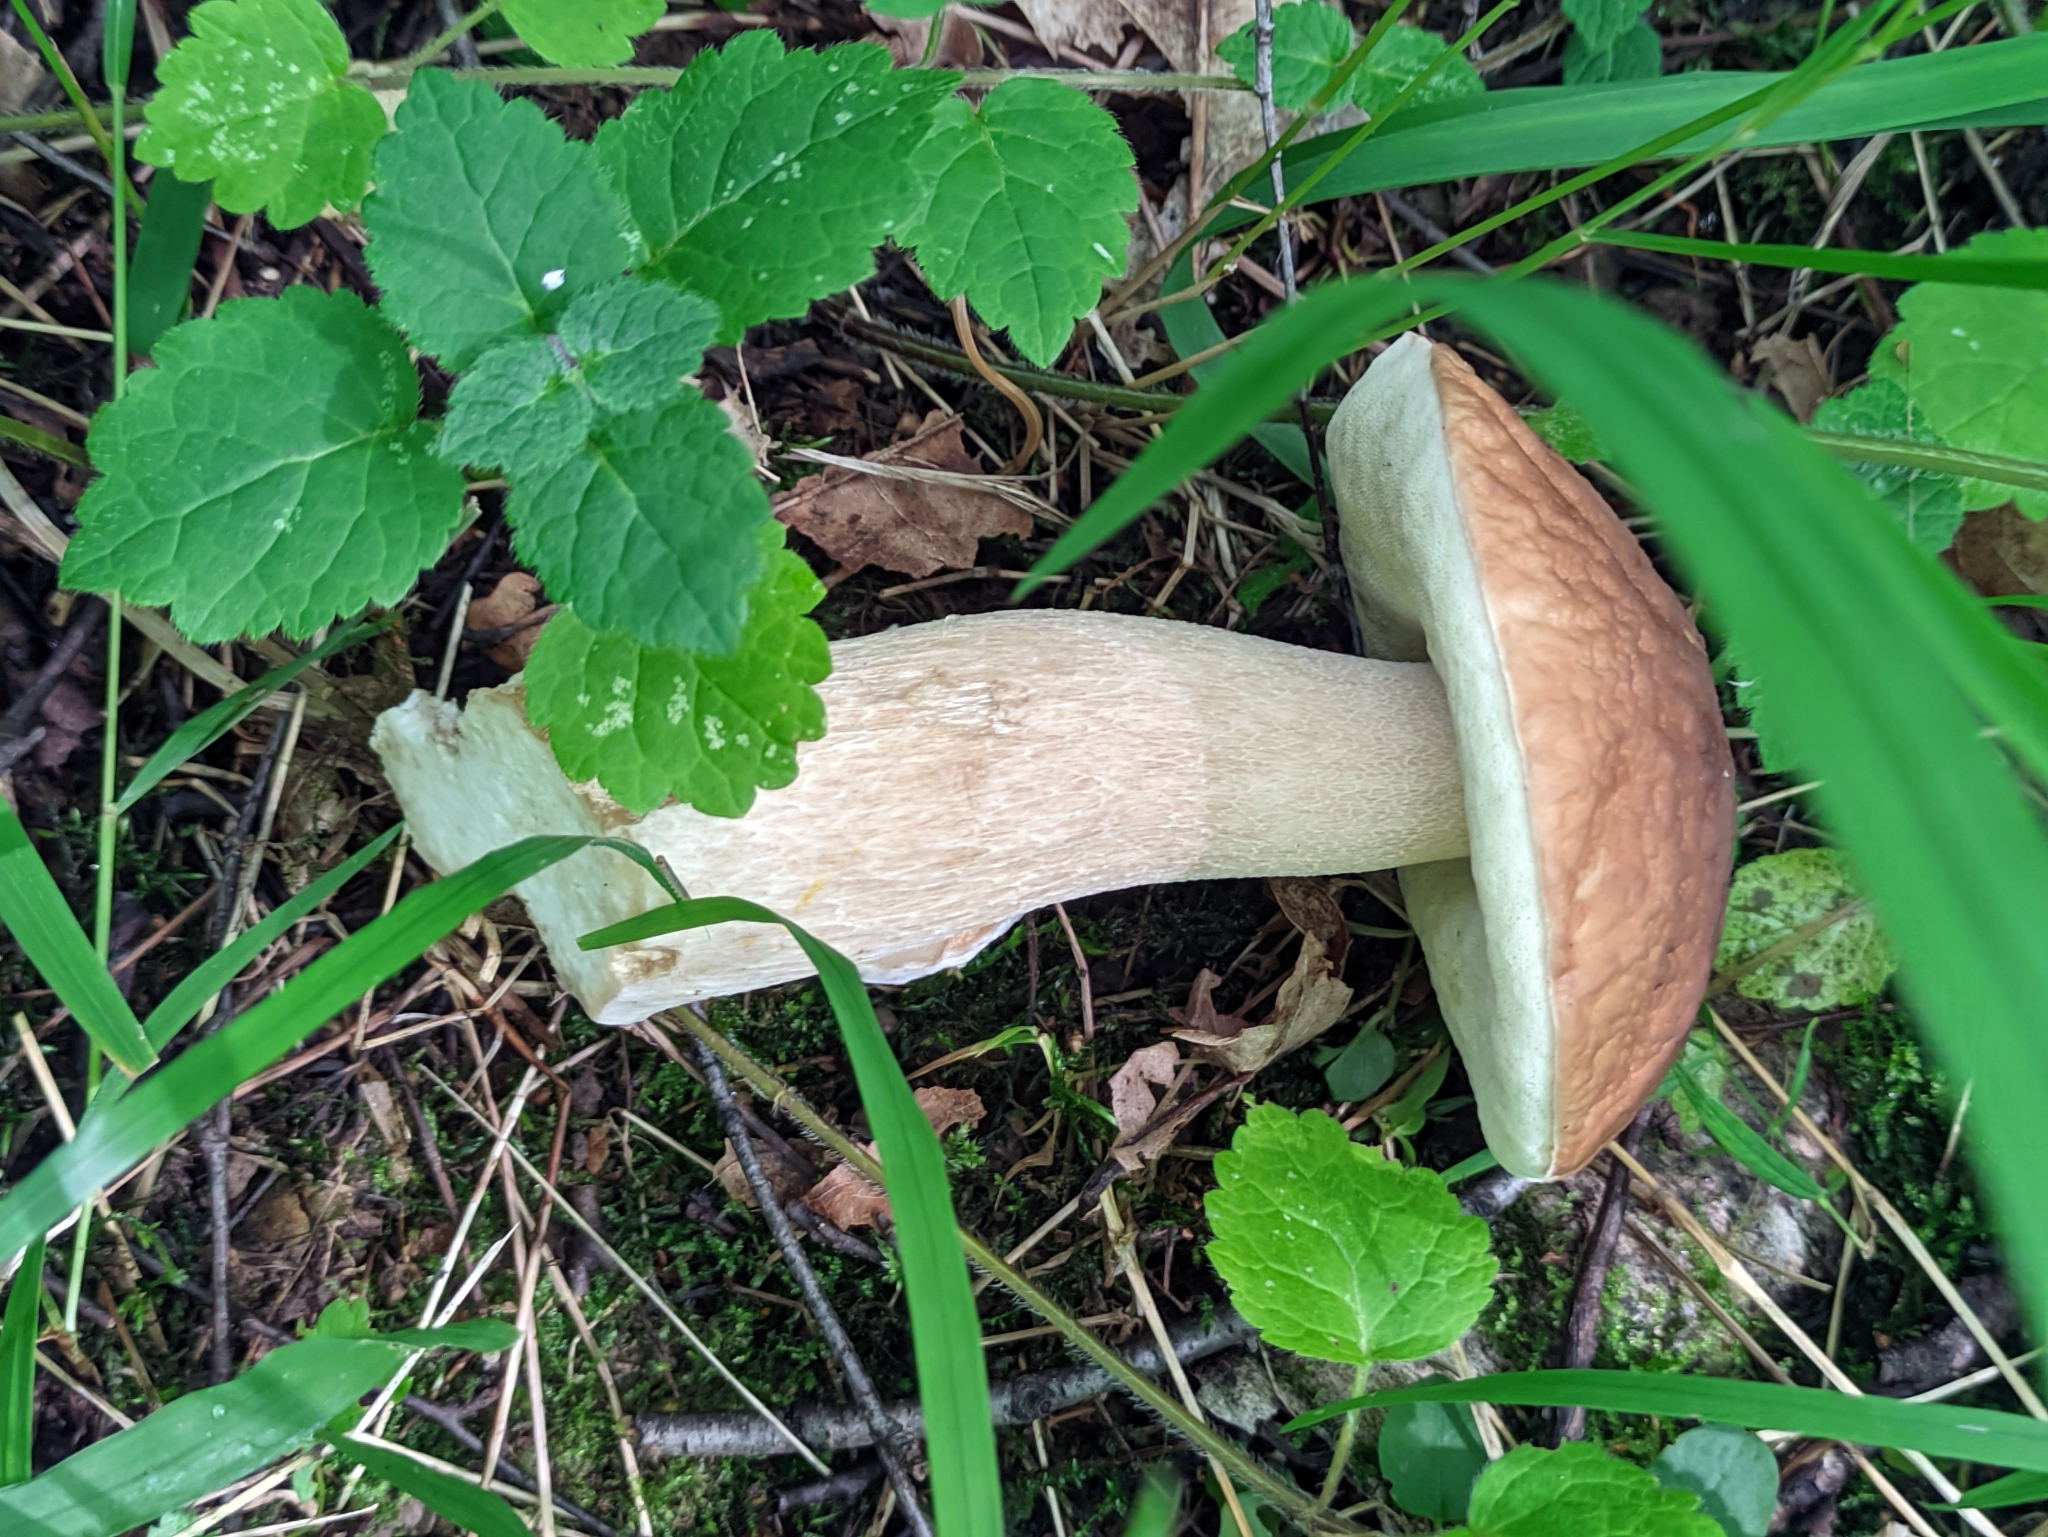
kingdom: Fungi
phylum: Basidiomycota
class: Agaricomycetes
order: Boletales
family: Boletaceae
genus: Boletus
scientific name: Boletus reticulatus
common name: Summer bolete
